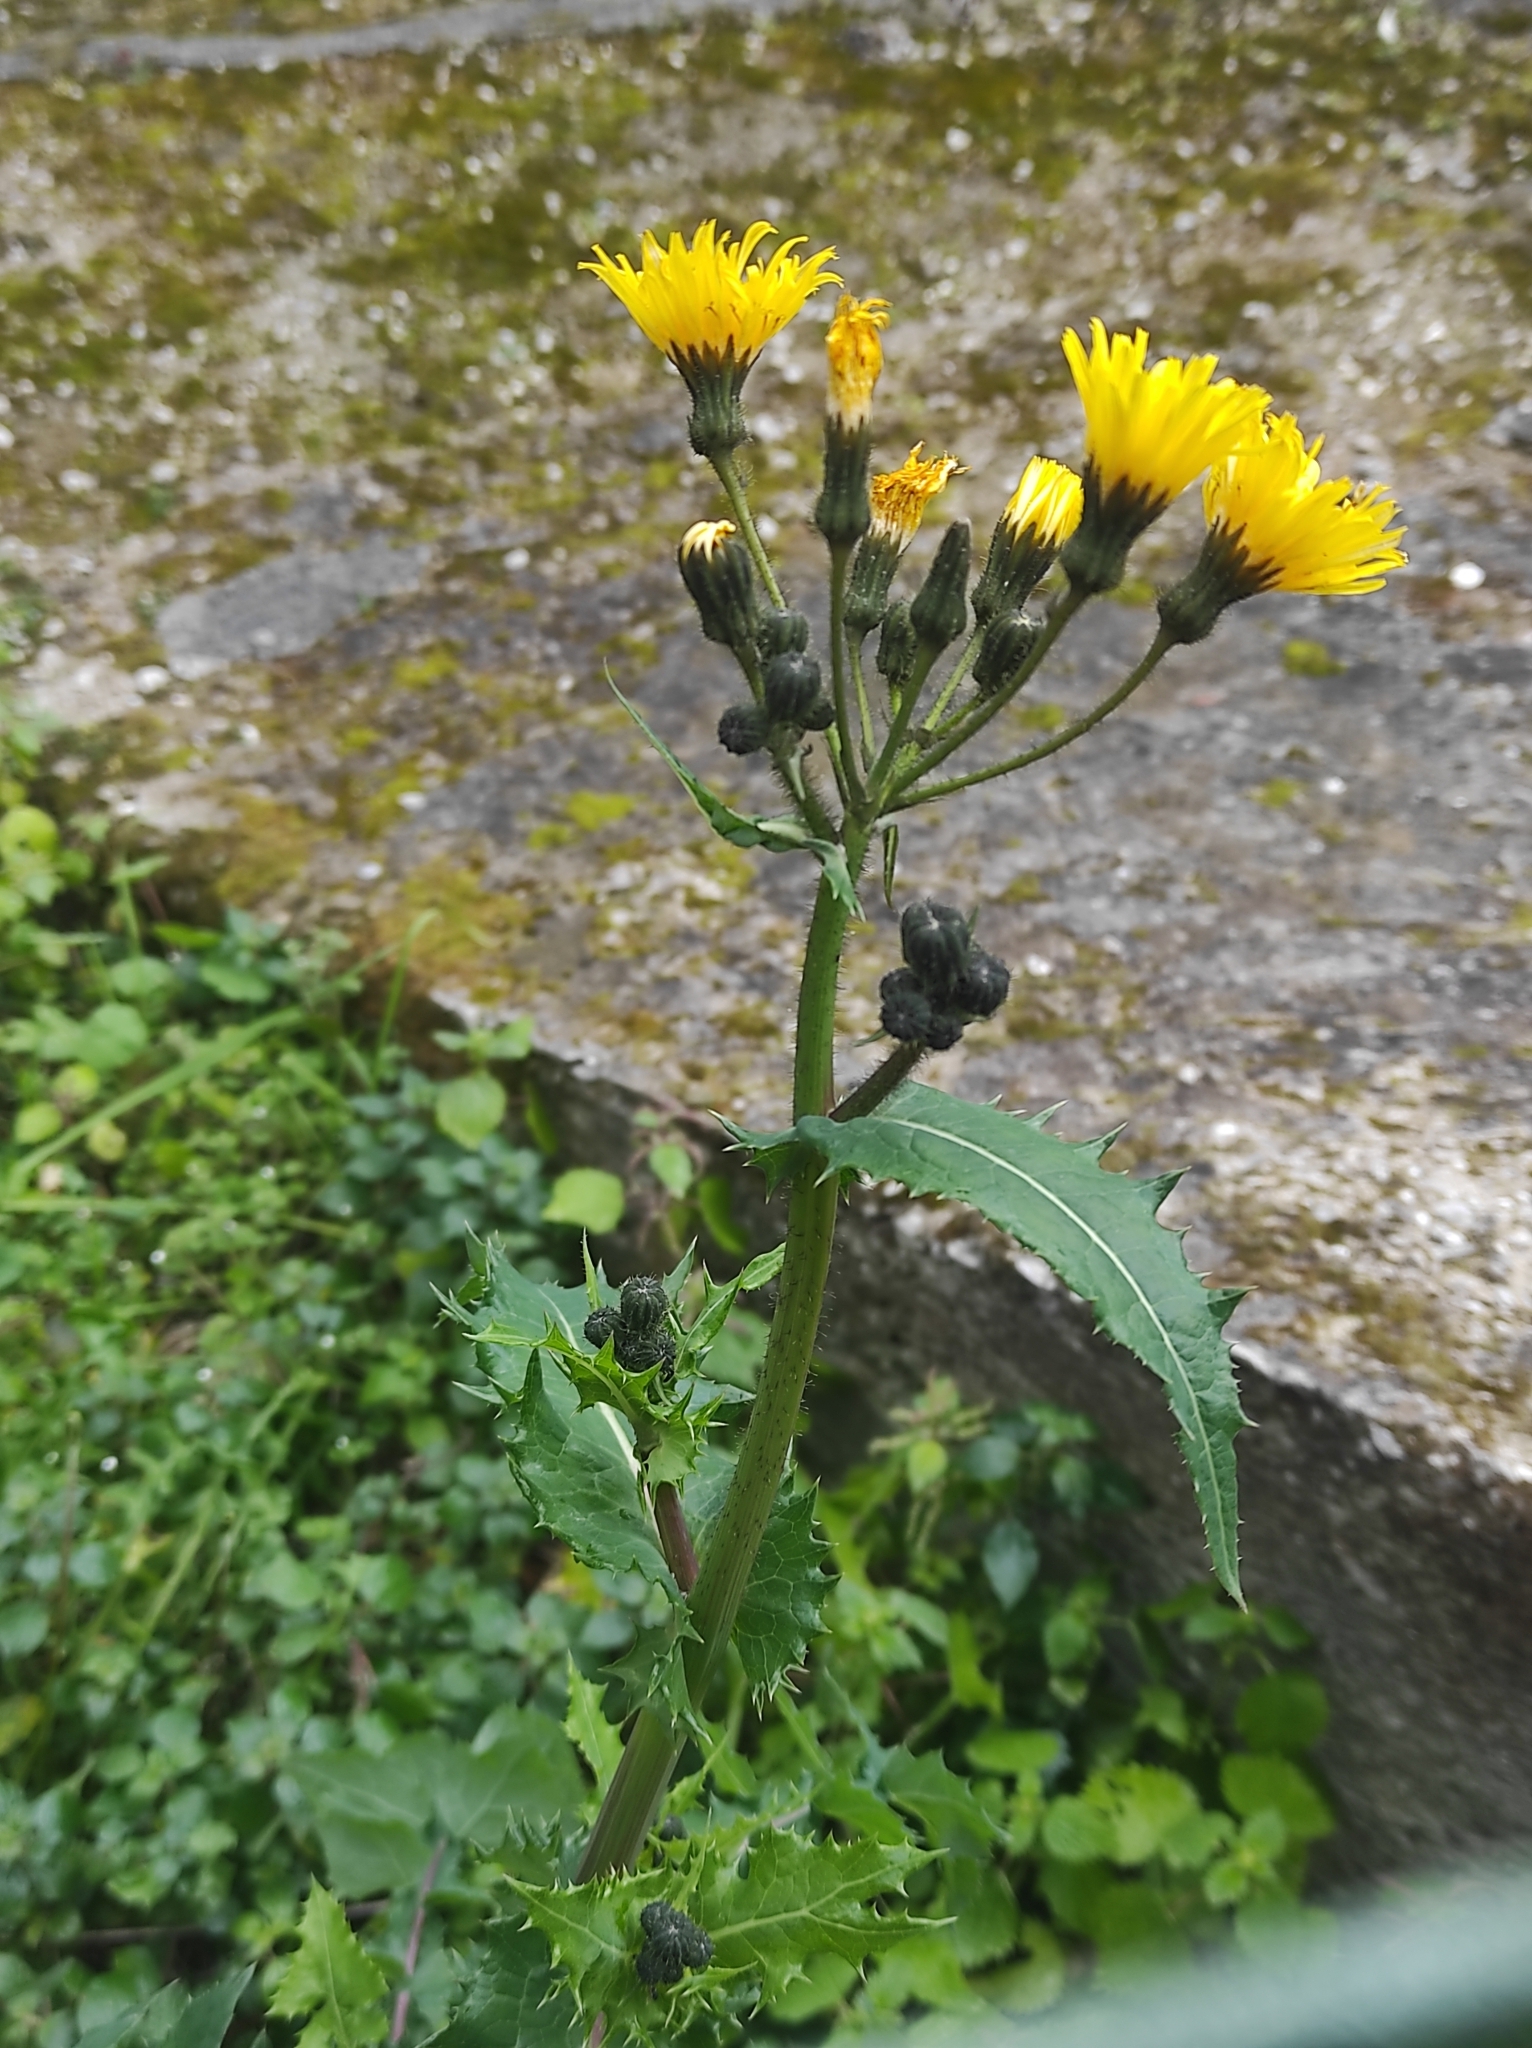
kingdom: Plantae
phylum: Tracheophyta
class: Magnoliopsida
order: Asterales
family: Asteraceae
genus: Sonchus
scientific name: Sonchus asper
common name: Prickly sow-thistle
